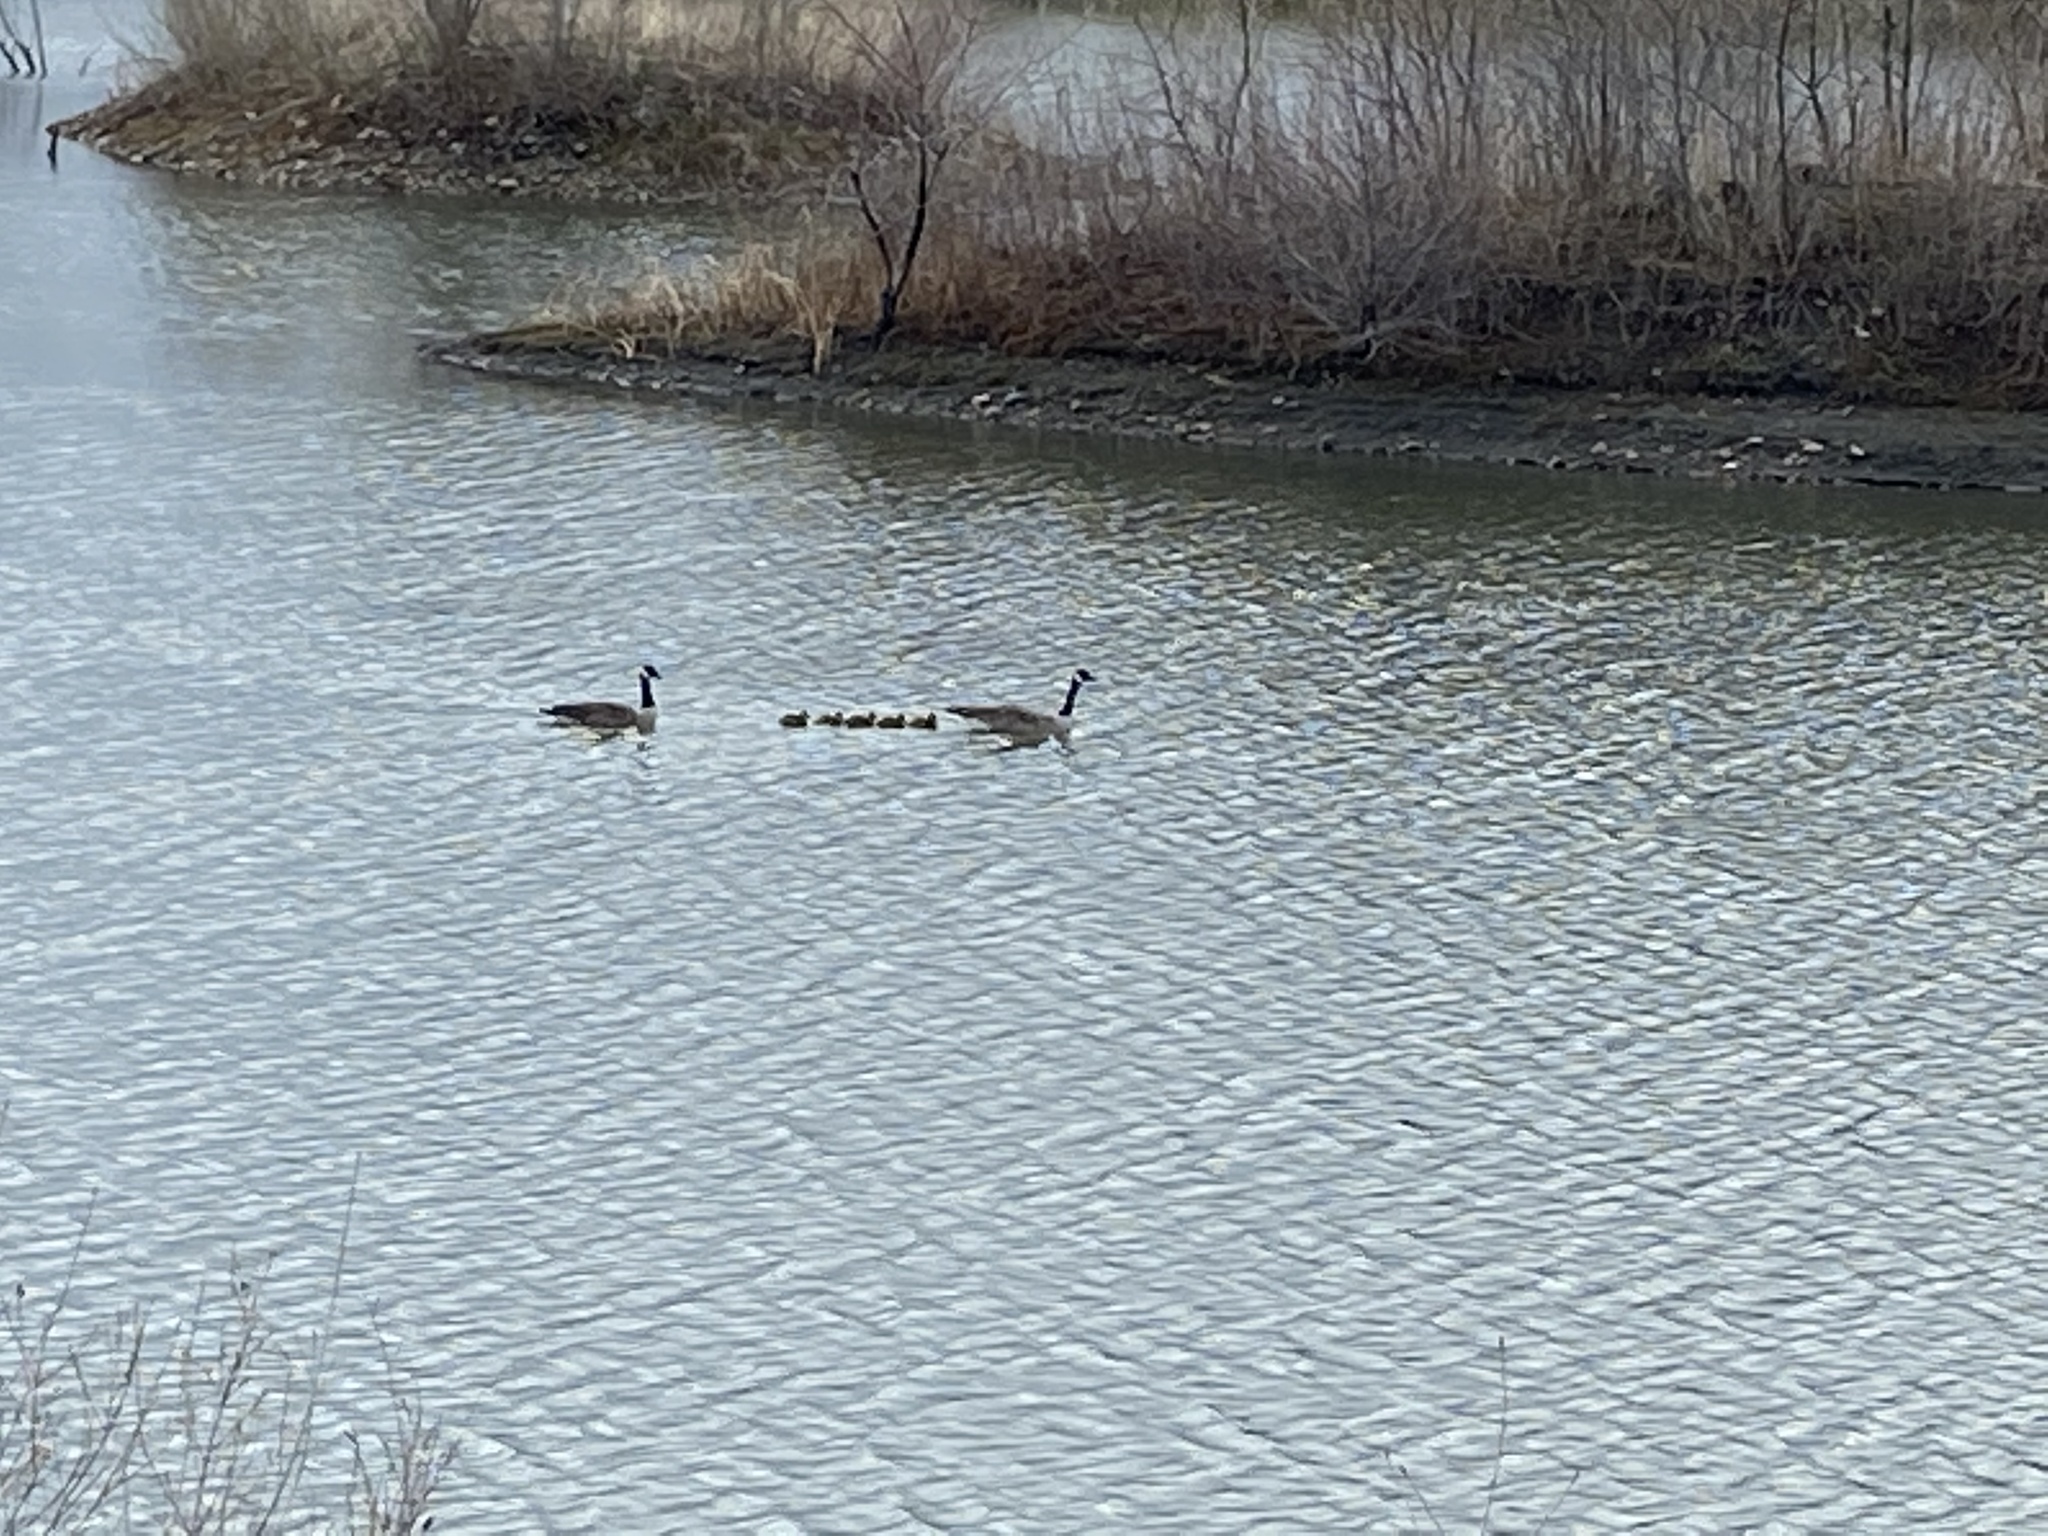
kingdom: Animalia
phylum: Chordata
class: Aves
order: Anseriformes
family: Anatidae
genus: Branta
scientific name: Branta canadensis
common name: Canada goose
